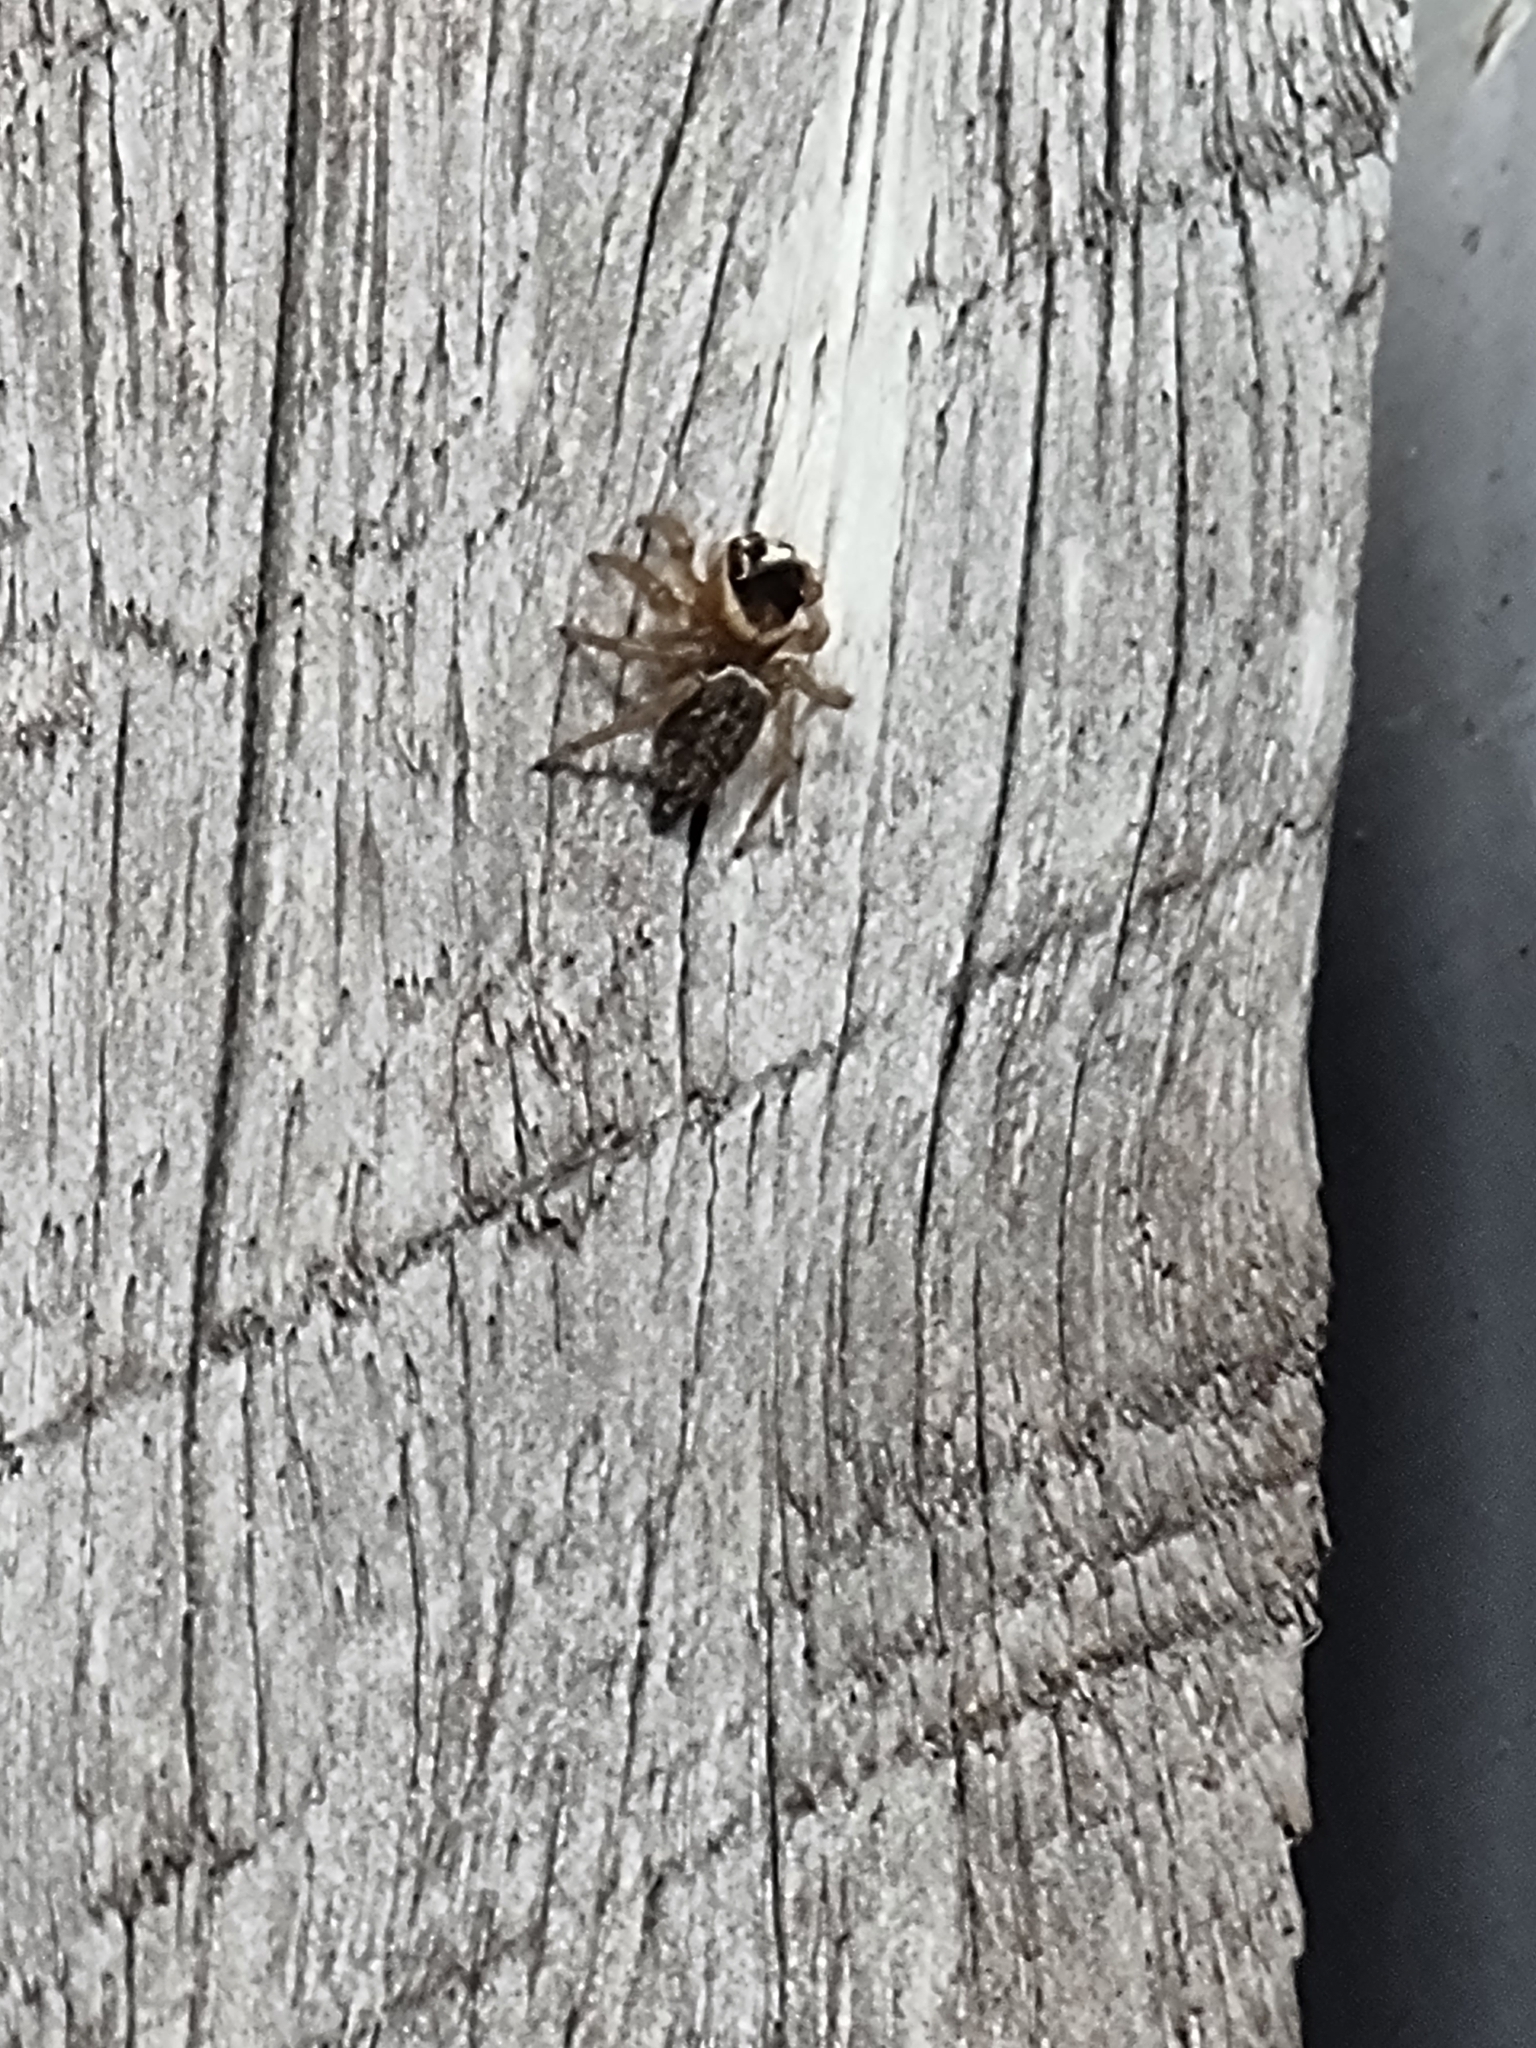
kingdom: Animalia
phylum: Arthropoda
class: Arachnida
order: Araneae
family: Salticidae
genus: Maratus
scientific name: Maratus griseus
